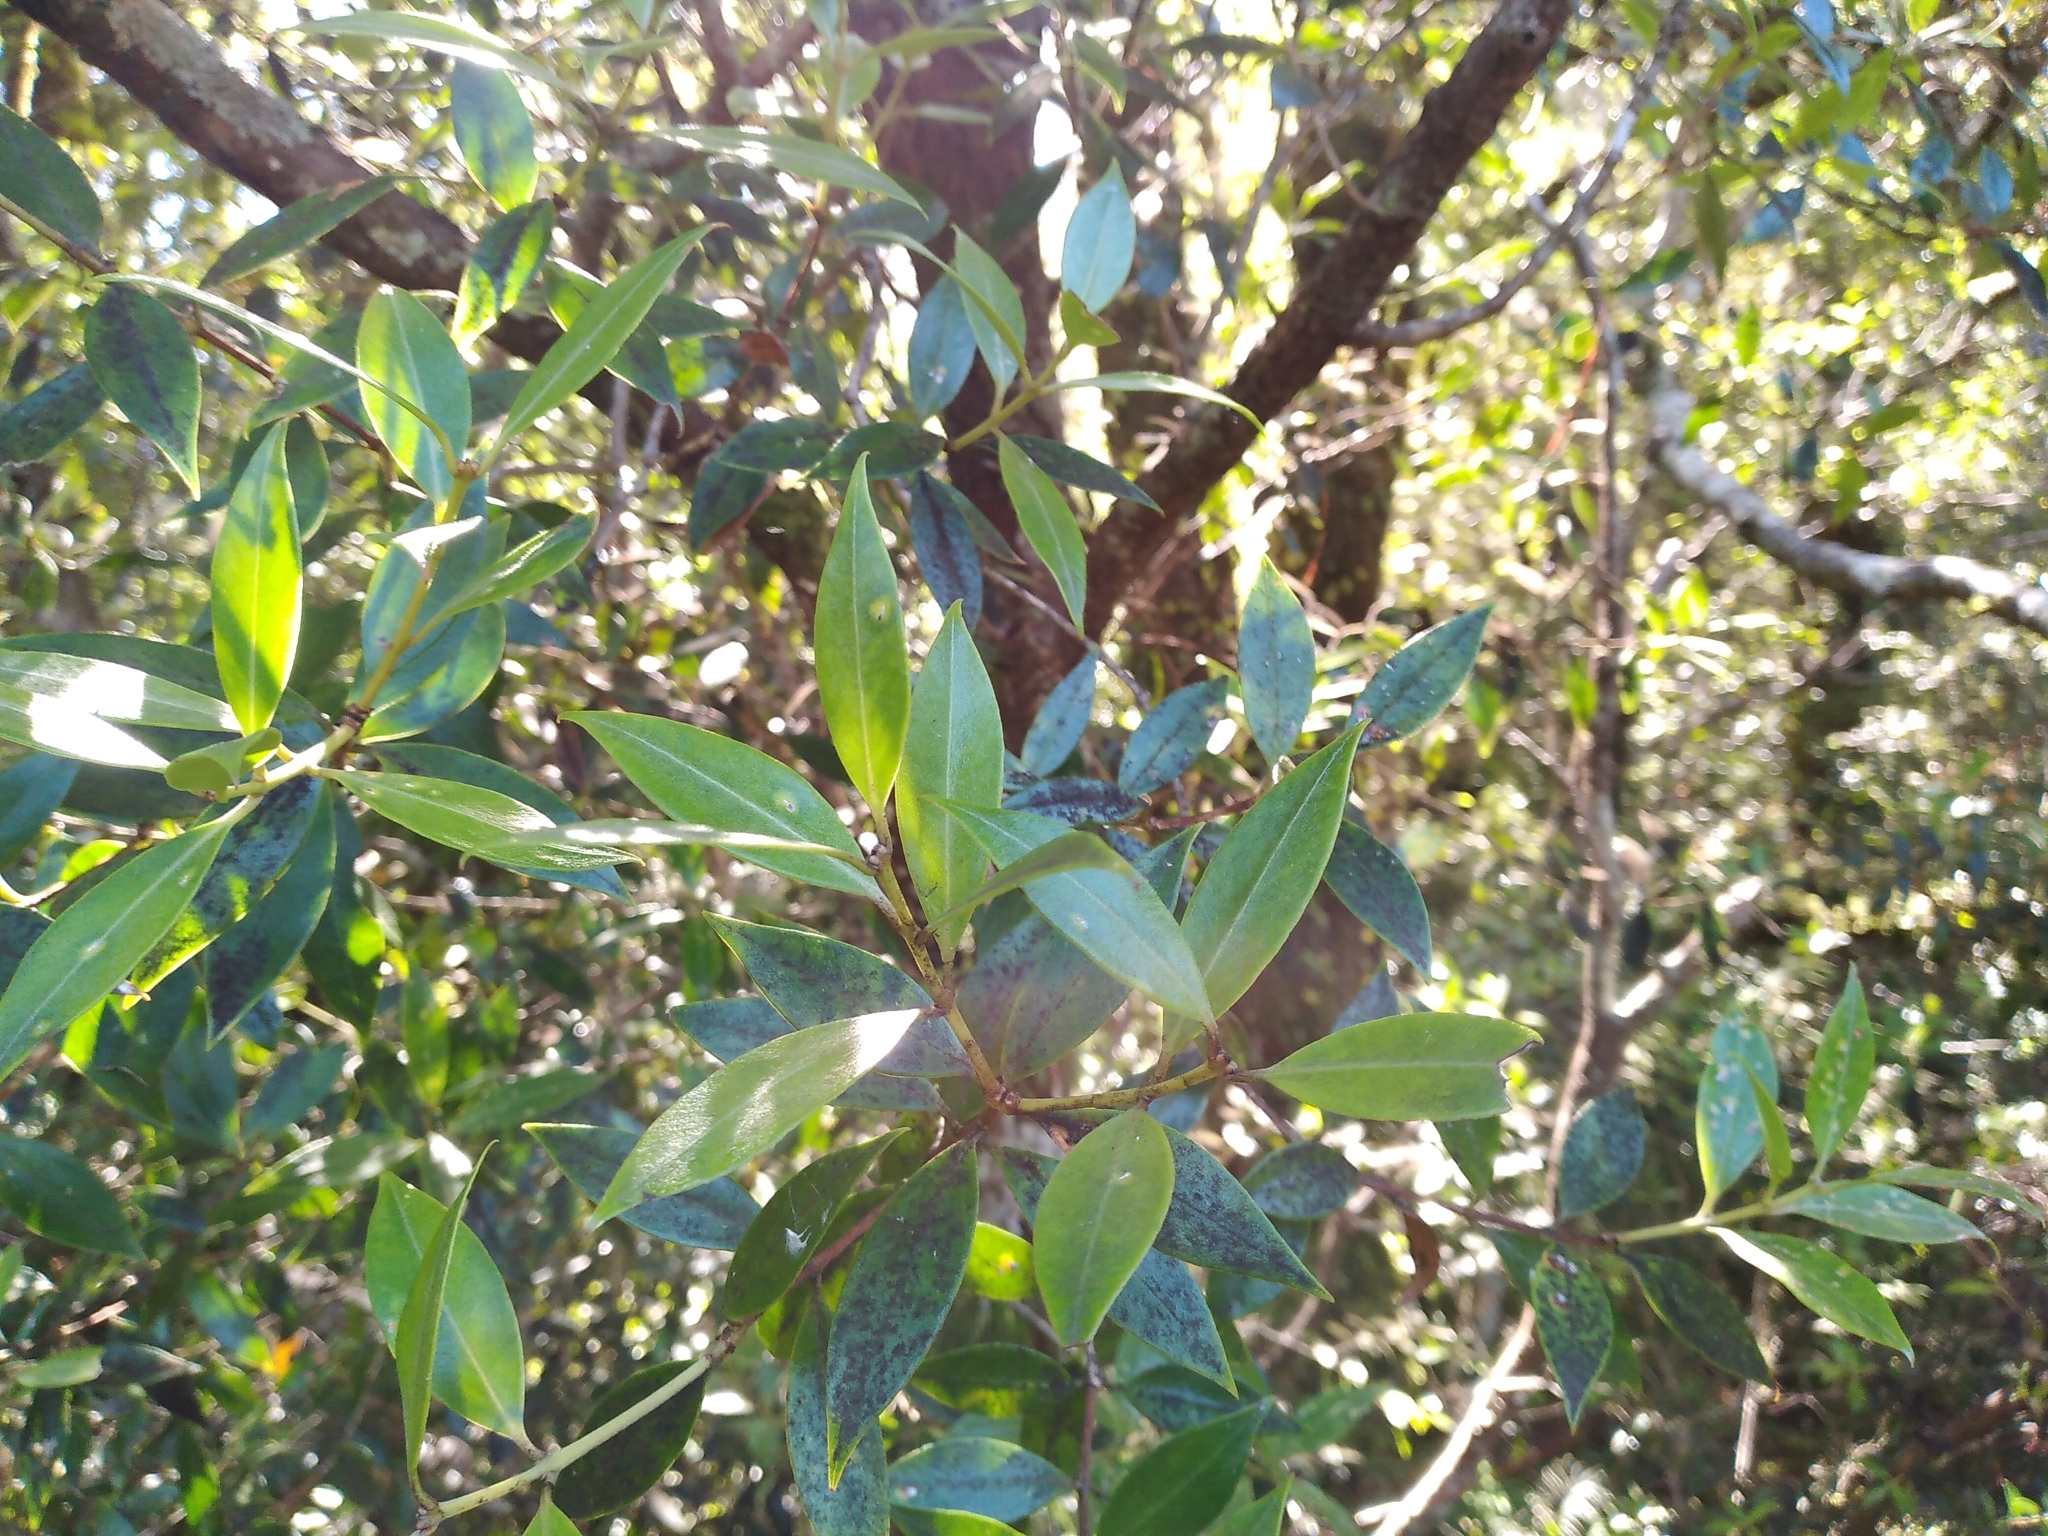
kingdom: Plantae
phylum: Tracheophyta
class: Magnoliopsida
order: Myrtales
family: Myrtaceae
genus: Metrosideros
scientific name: Metrosideros umbellata
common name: Southern rata
